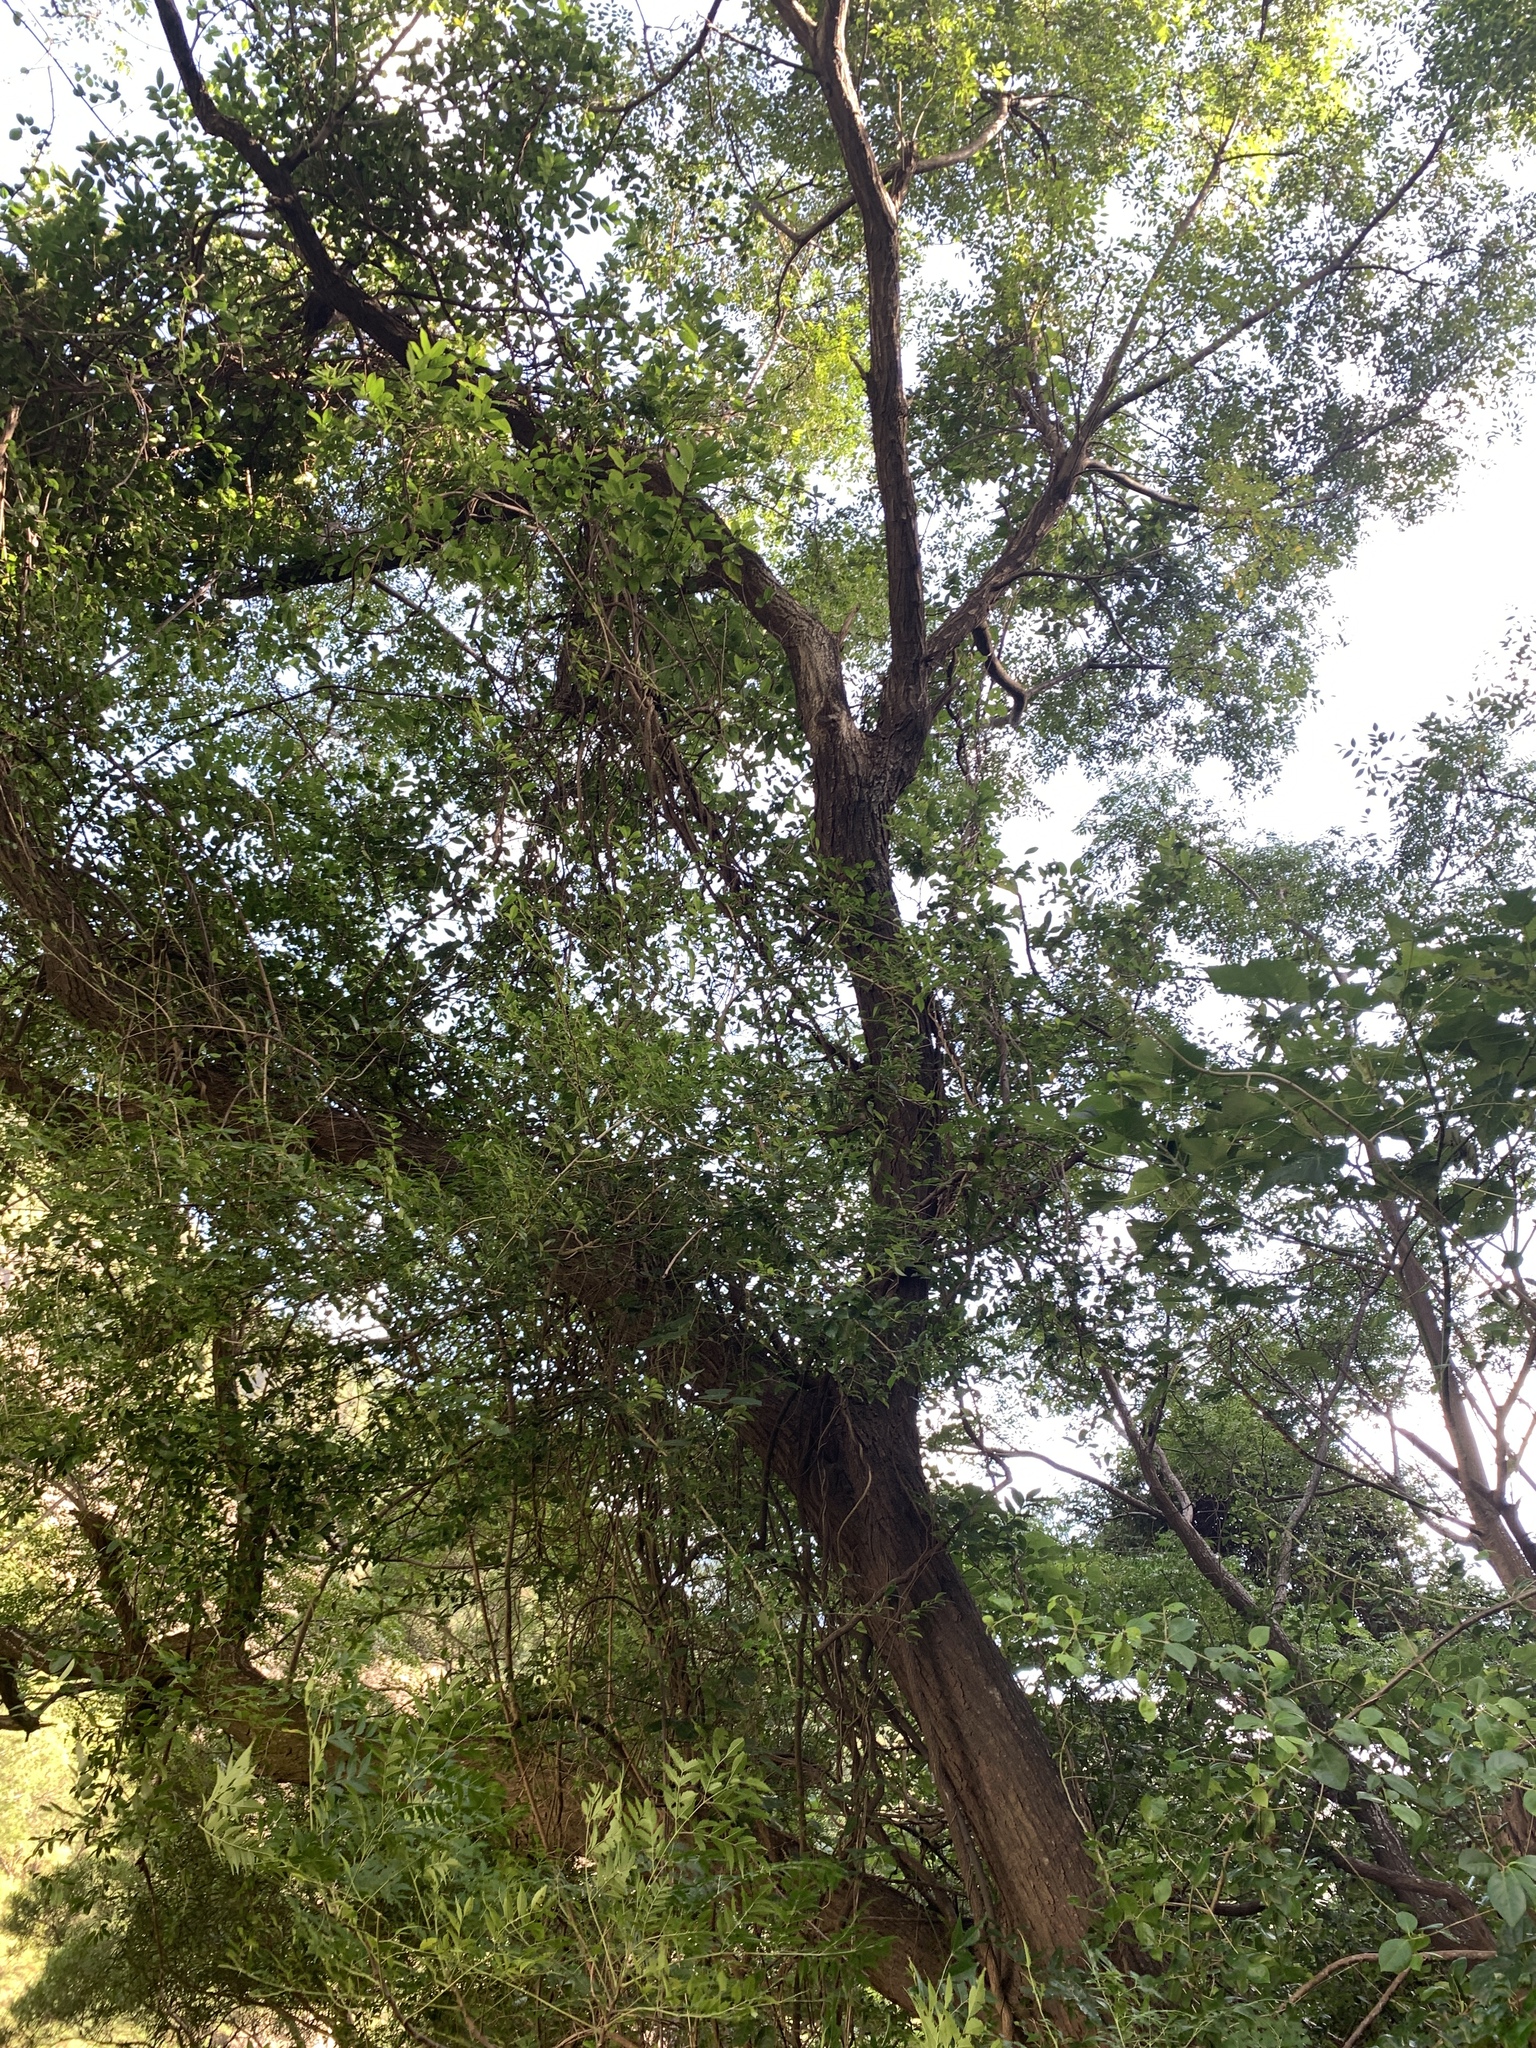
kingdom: Plantae
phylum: Tracheophyta
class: Magnoliopsida
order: Sapindales
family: Meliaceae
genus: Melia
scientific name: Melia azedarach
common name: Chinaberrytree
